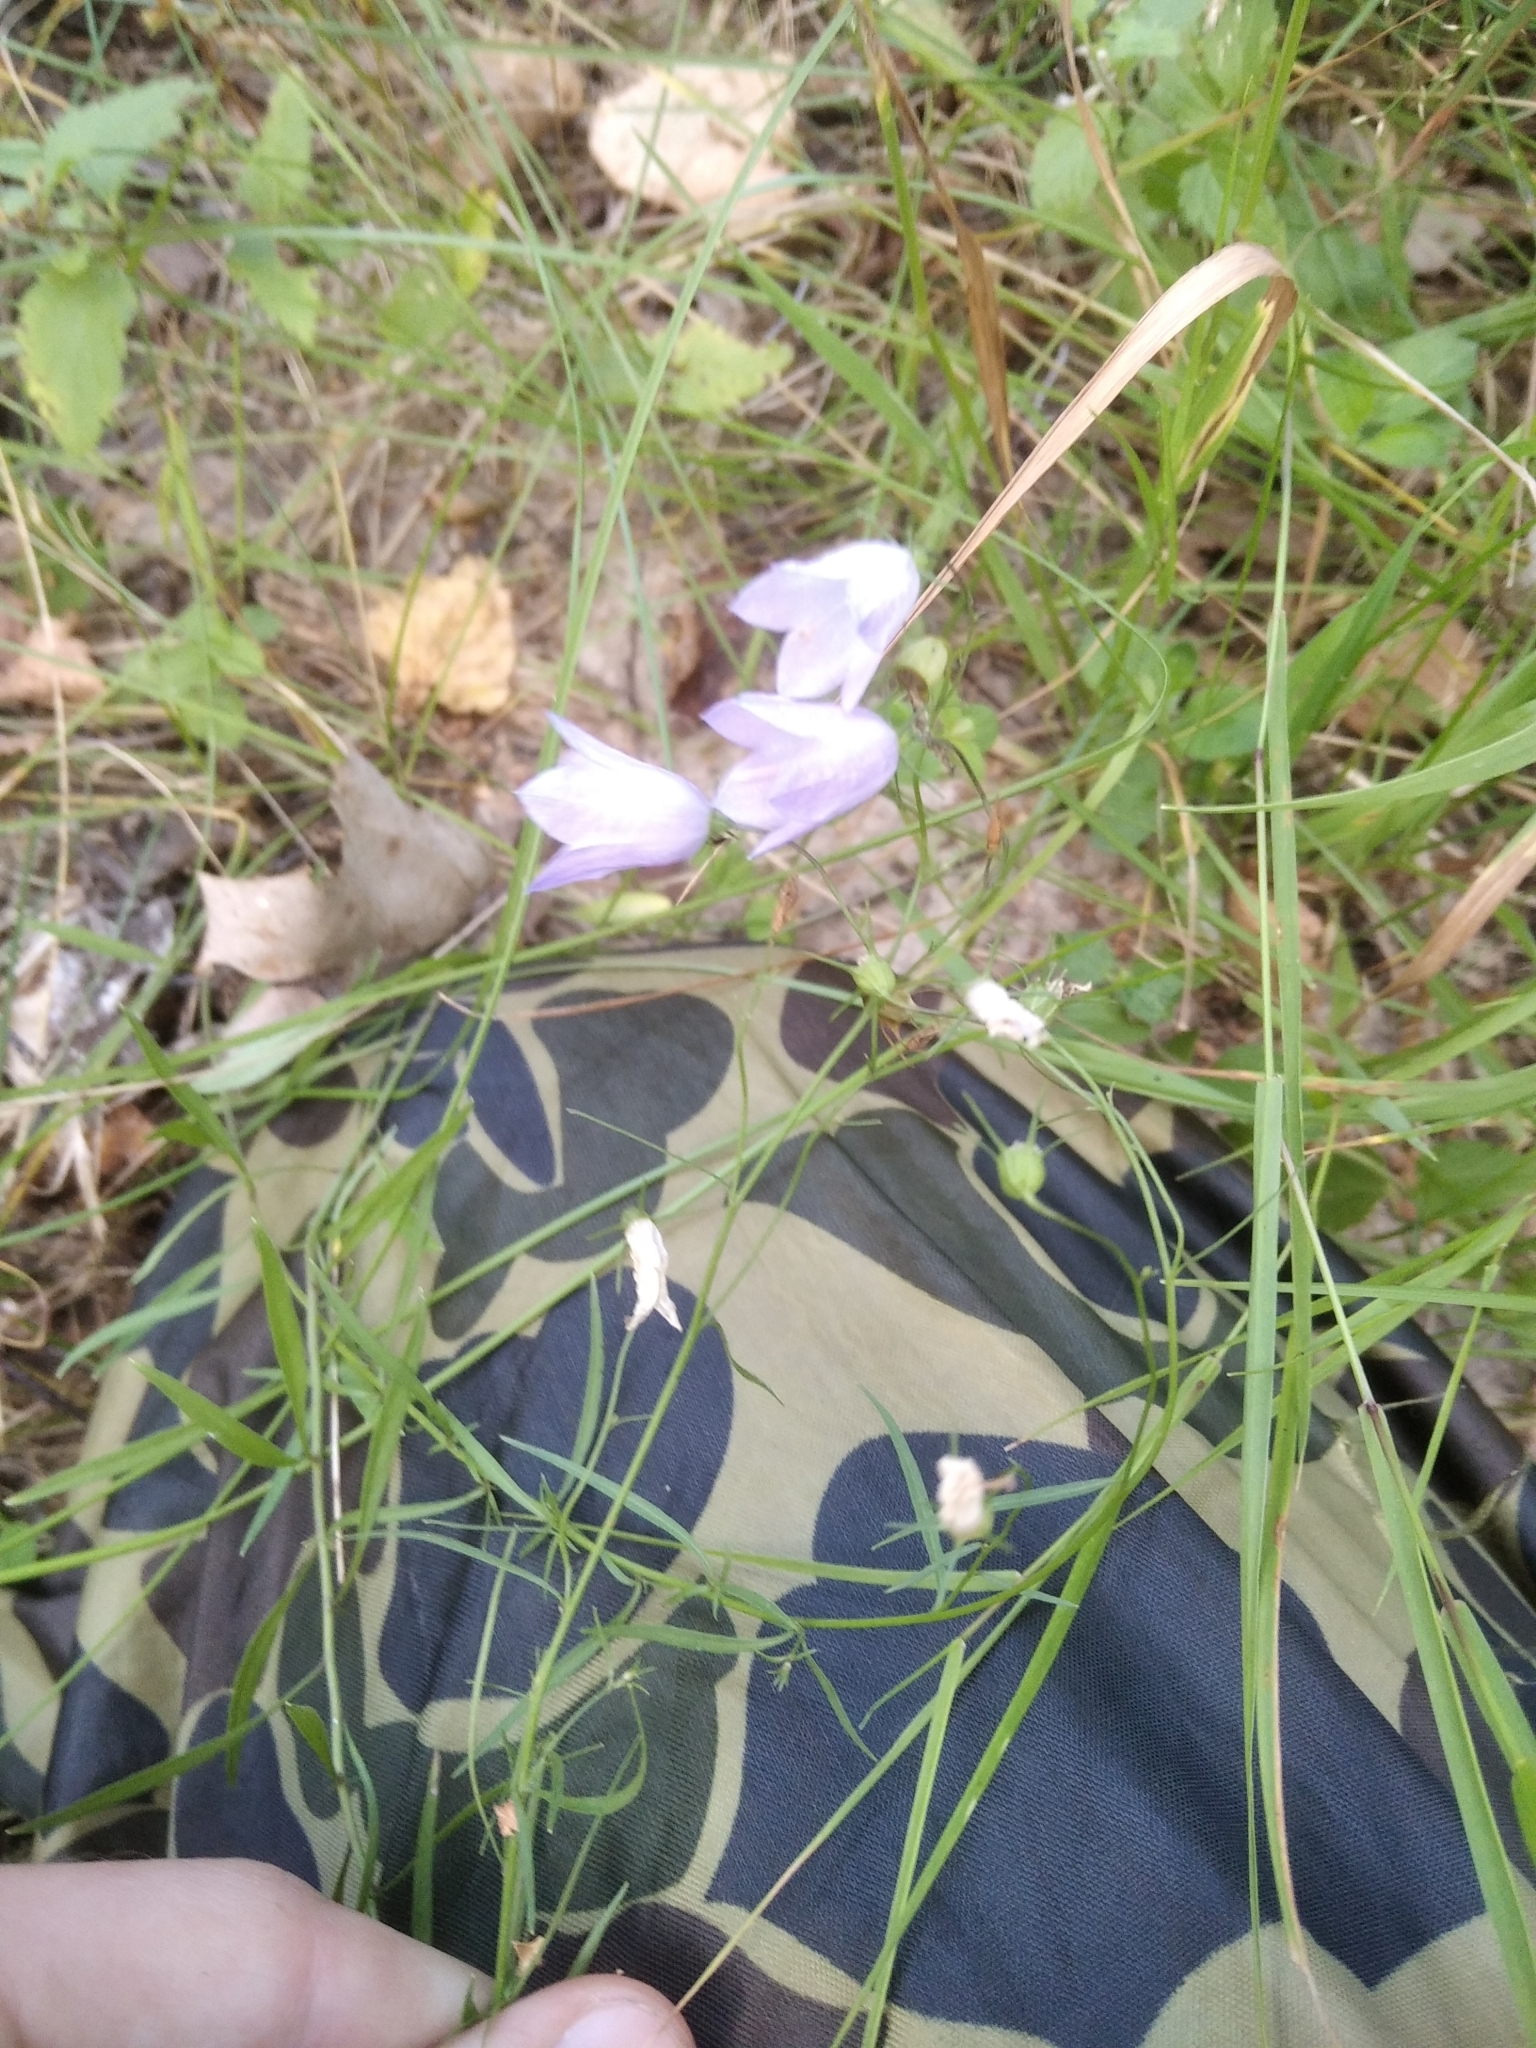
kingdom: Plantae
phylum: Tracheophyta
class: Magnoliopsida
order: Asterales
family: Campanulaceae
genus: Campanula
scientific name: Campanula rotundifolia
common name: Harebell
